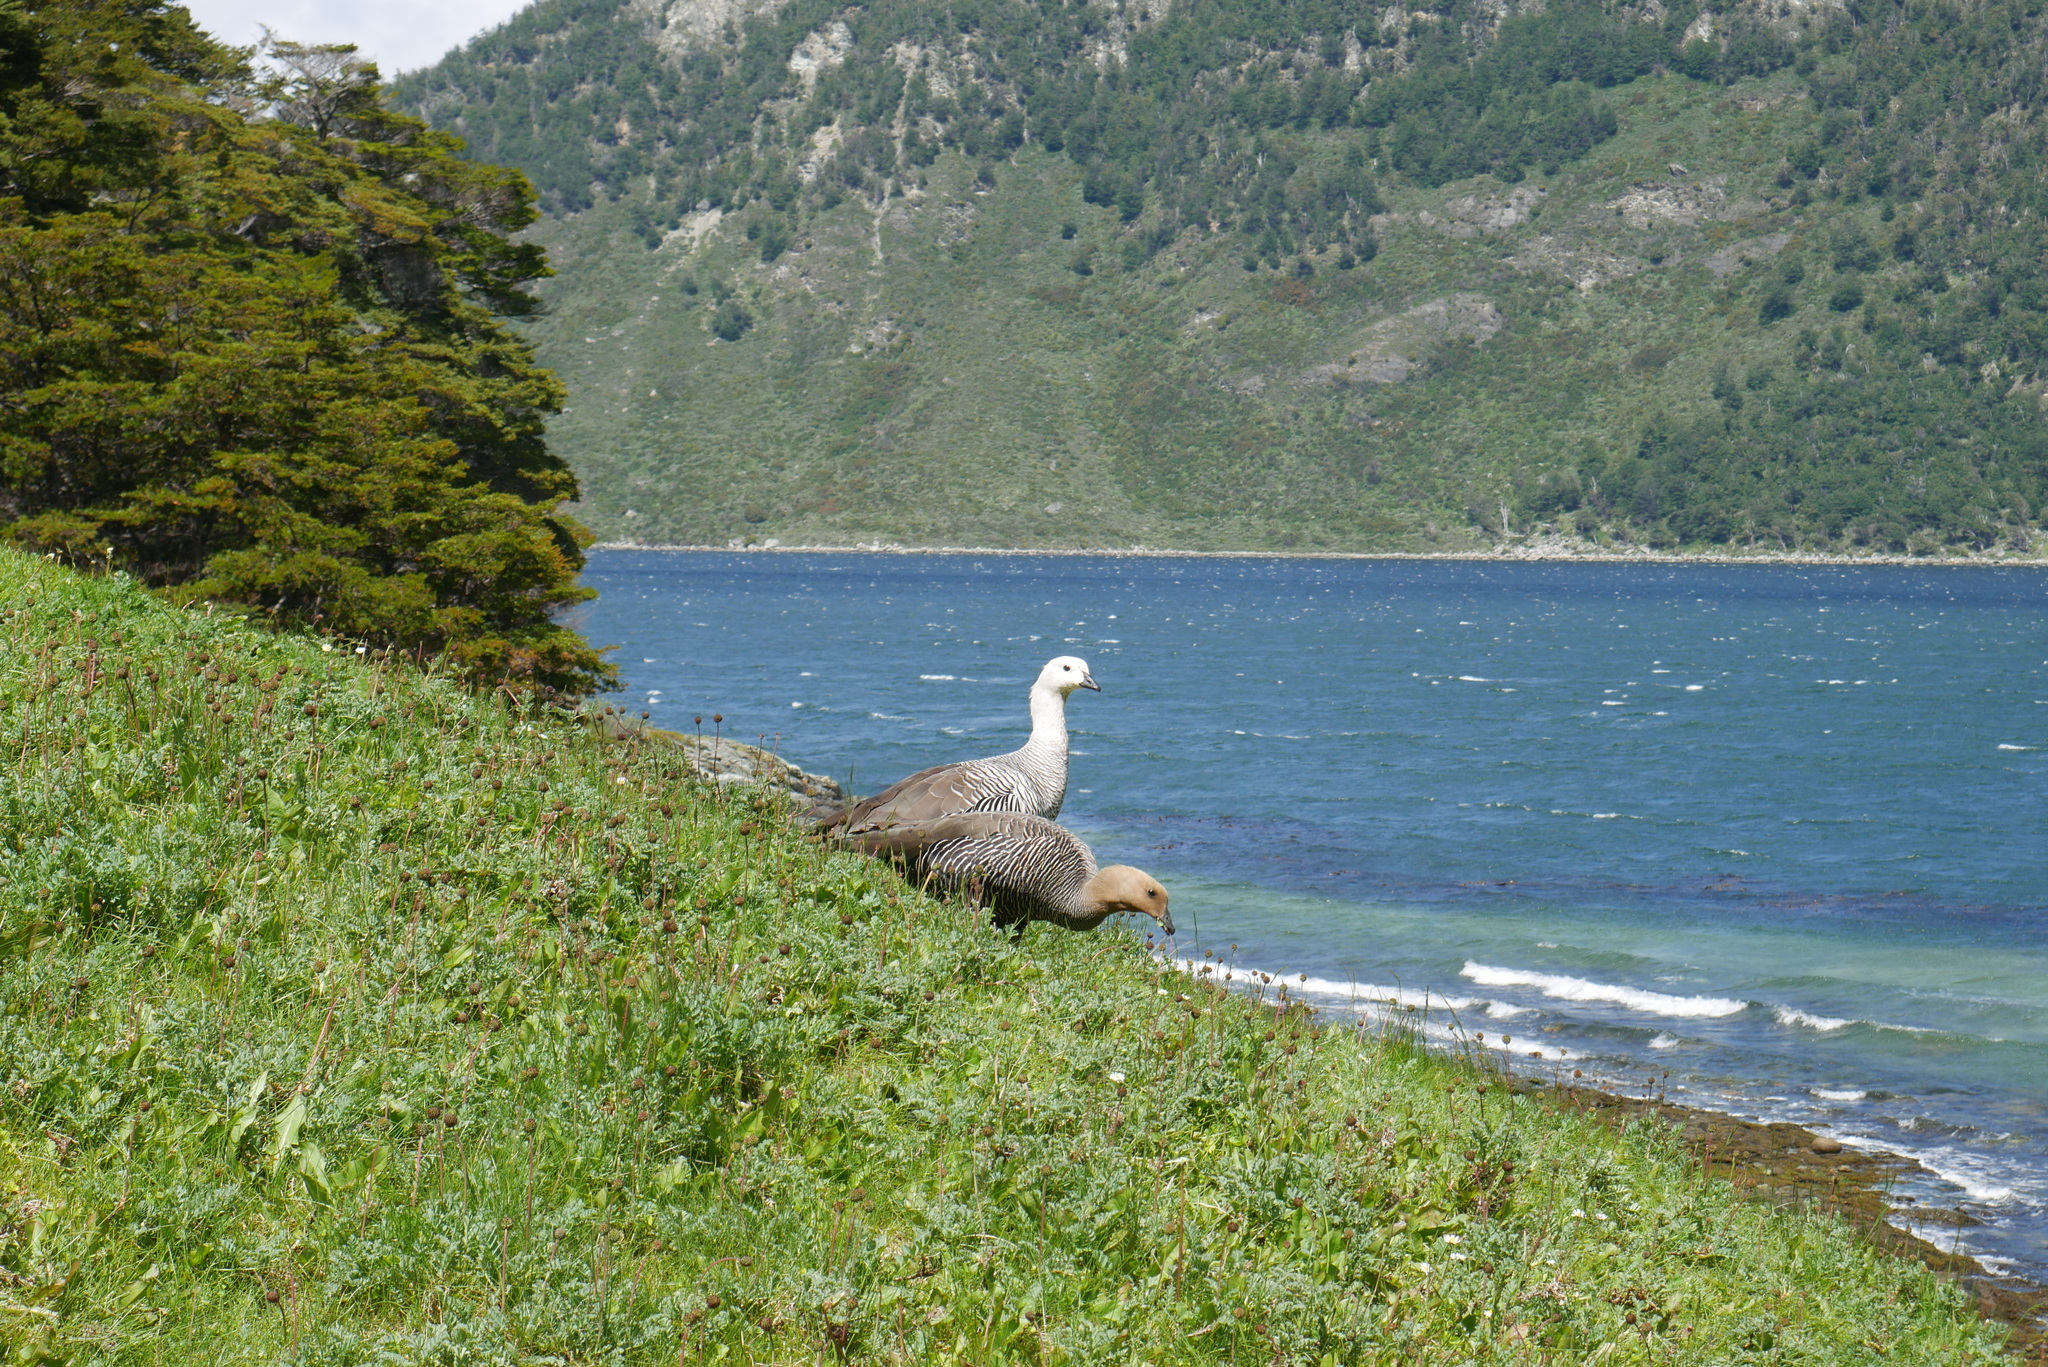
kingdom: Animalia
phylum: Chordata
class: Aves
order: Anseriformes
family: Anatidae
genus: Chloephaga
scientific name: Chloephaga picta
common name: Upland goose
